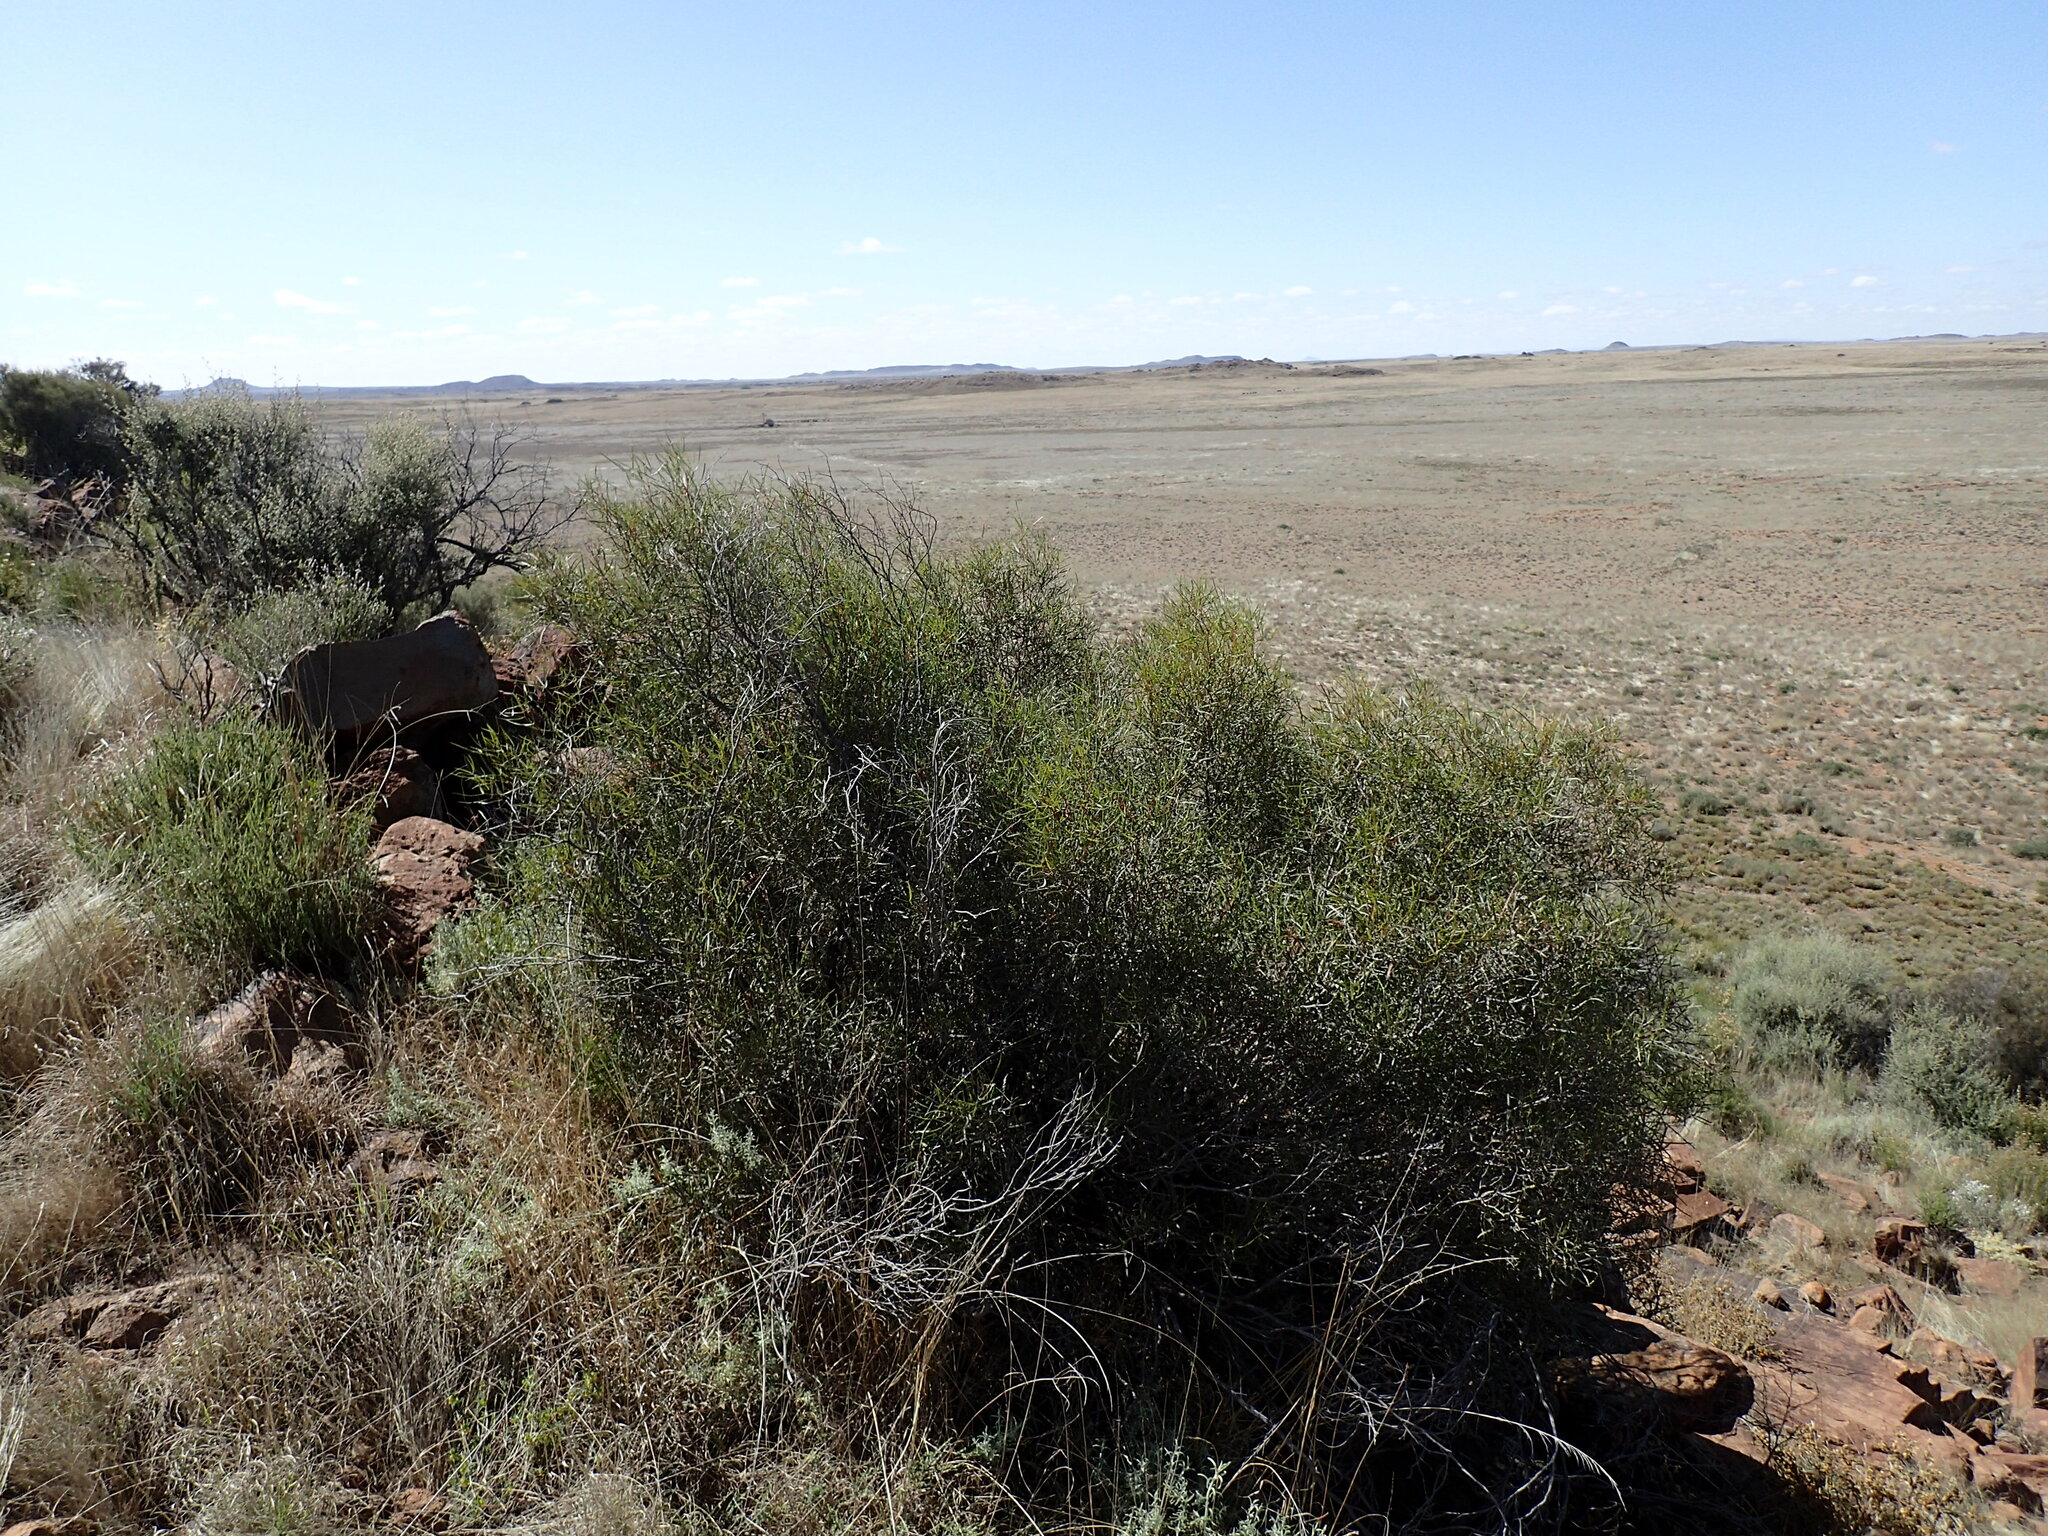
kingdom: Plantae
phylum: Tracheophyta
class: Magnoliopsida
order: Sapindales
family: Anacardiaceae
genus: Searsia
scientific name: Searsia erosa
